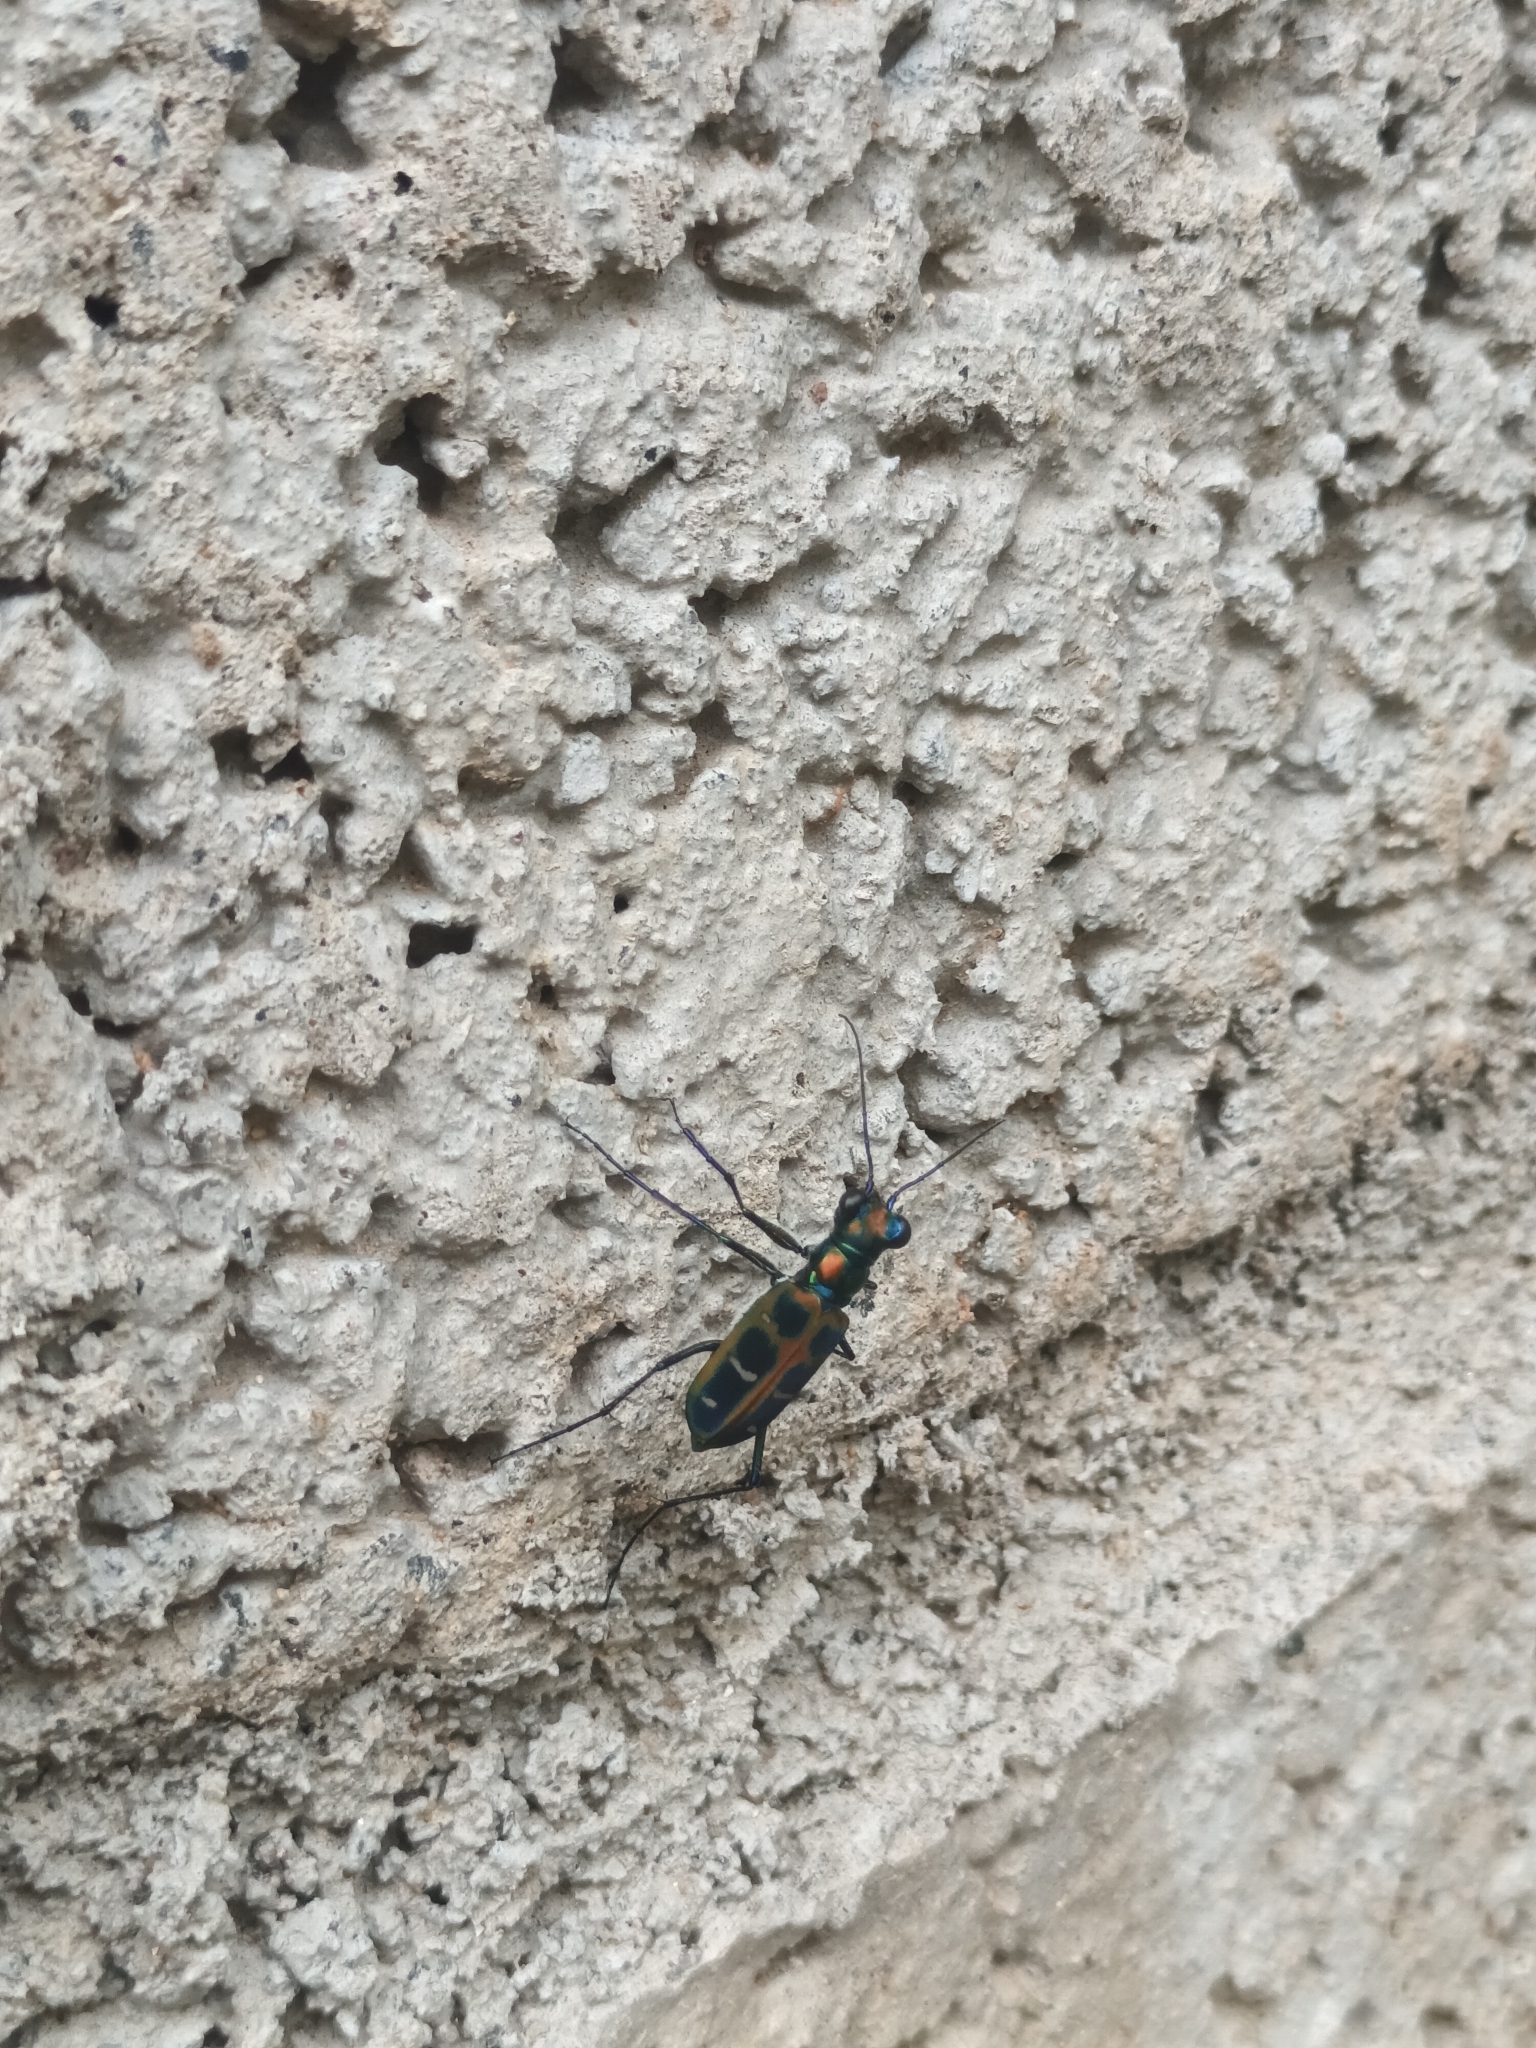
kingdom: Animalia
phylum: Arthropoda
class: Insecta
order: Coleoptera
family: Carabidae
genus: Cicindela
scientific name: Cicindela barmanica
